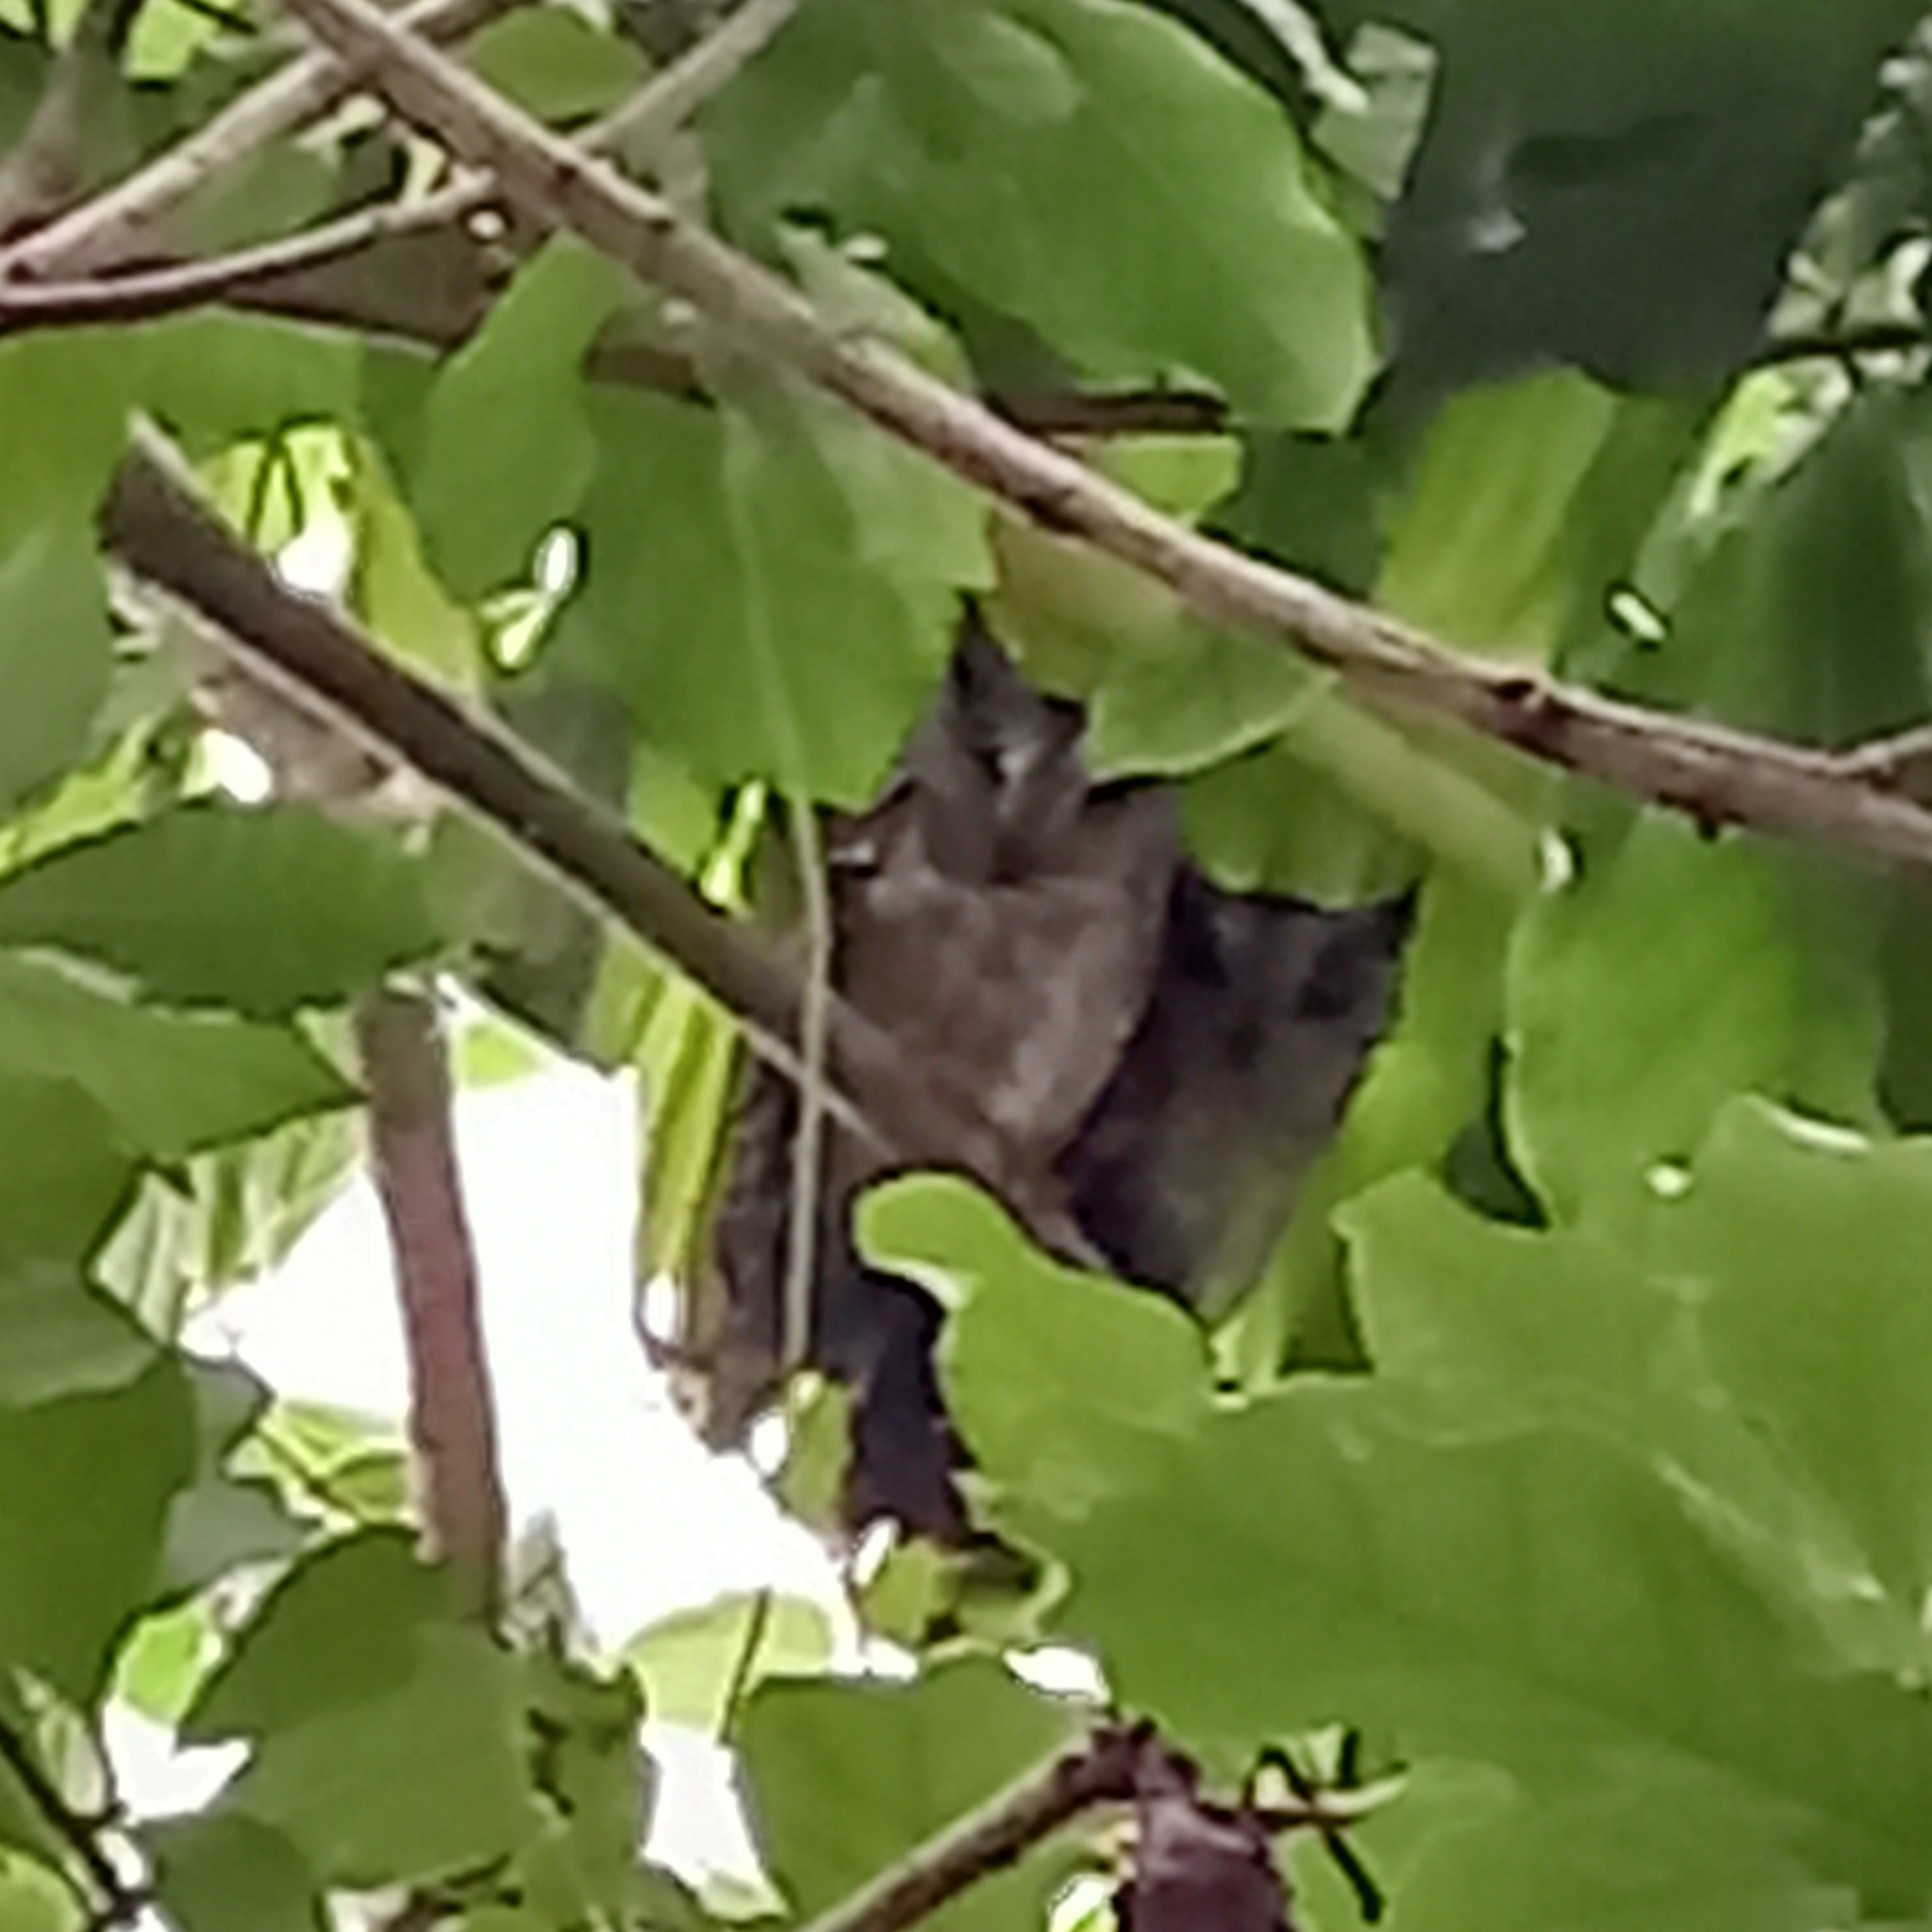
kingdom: Animalia
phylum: Chordata
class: Aves
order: Strigiformes
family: Strigidae
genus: Otus
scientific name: Otus bakkamoena
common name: Indian scops owl
